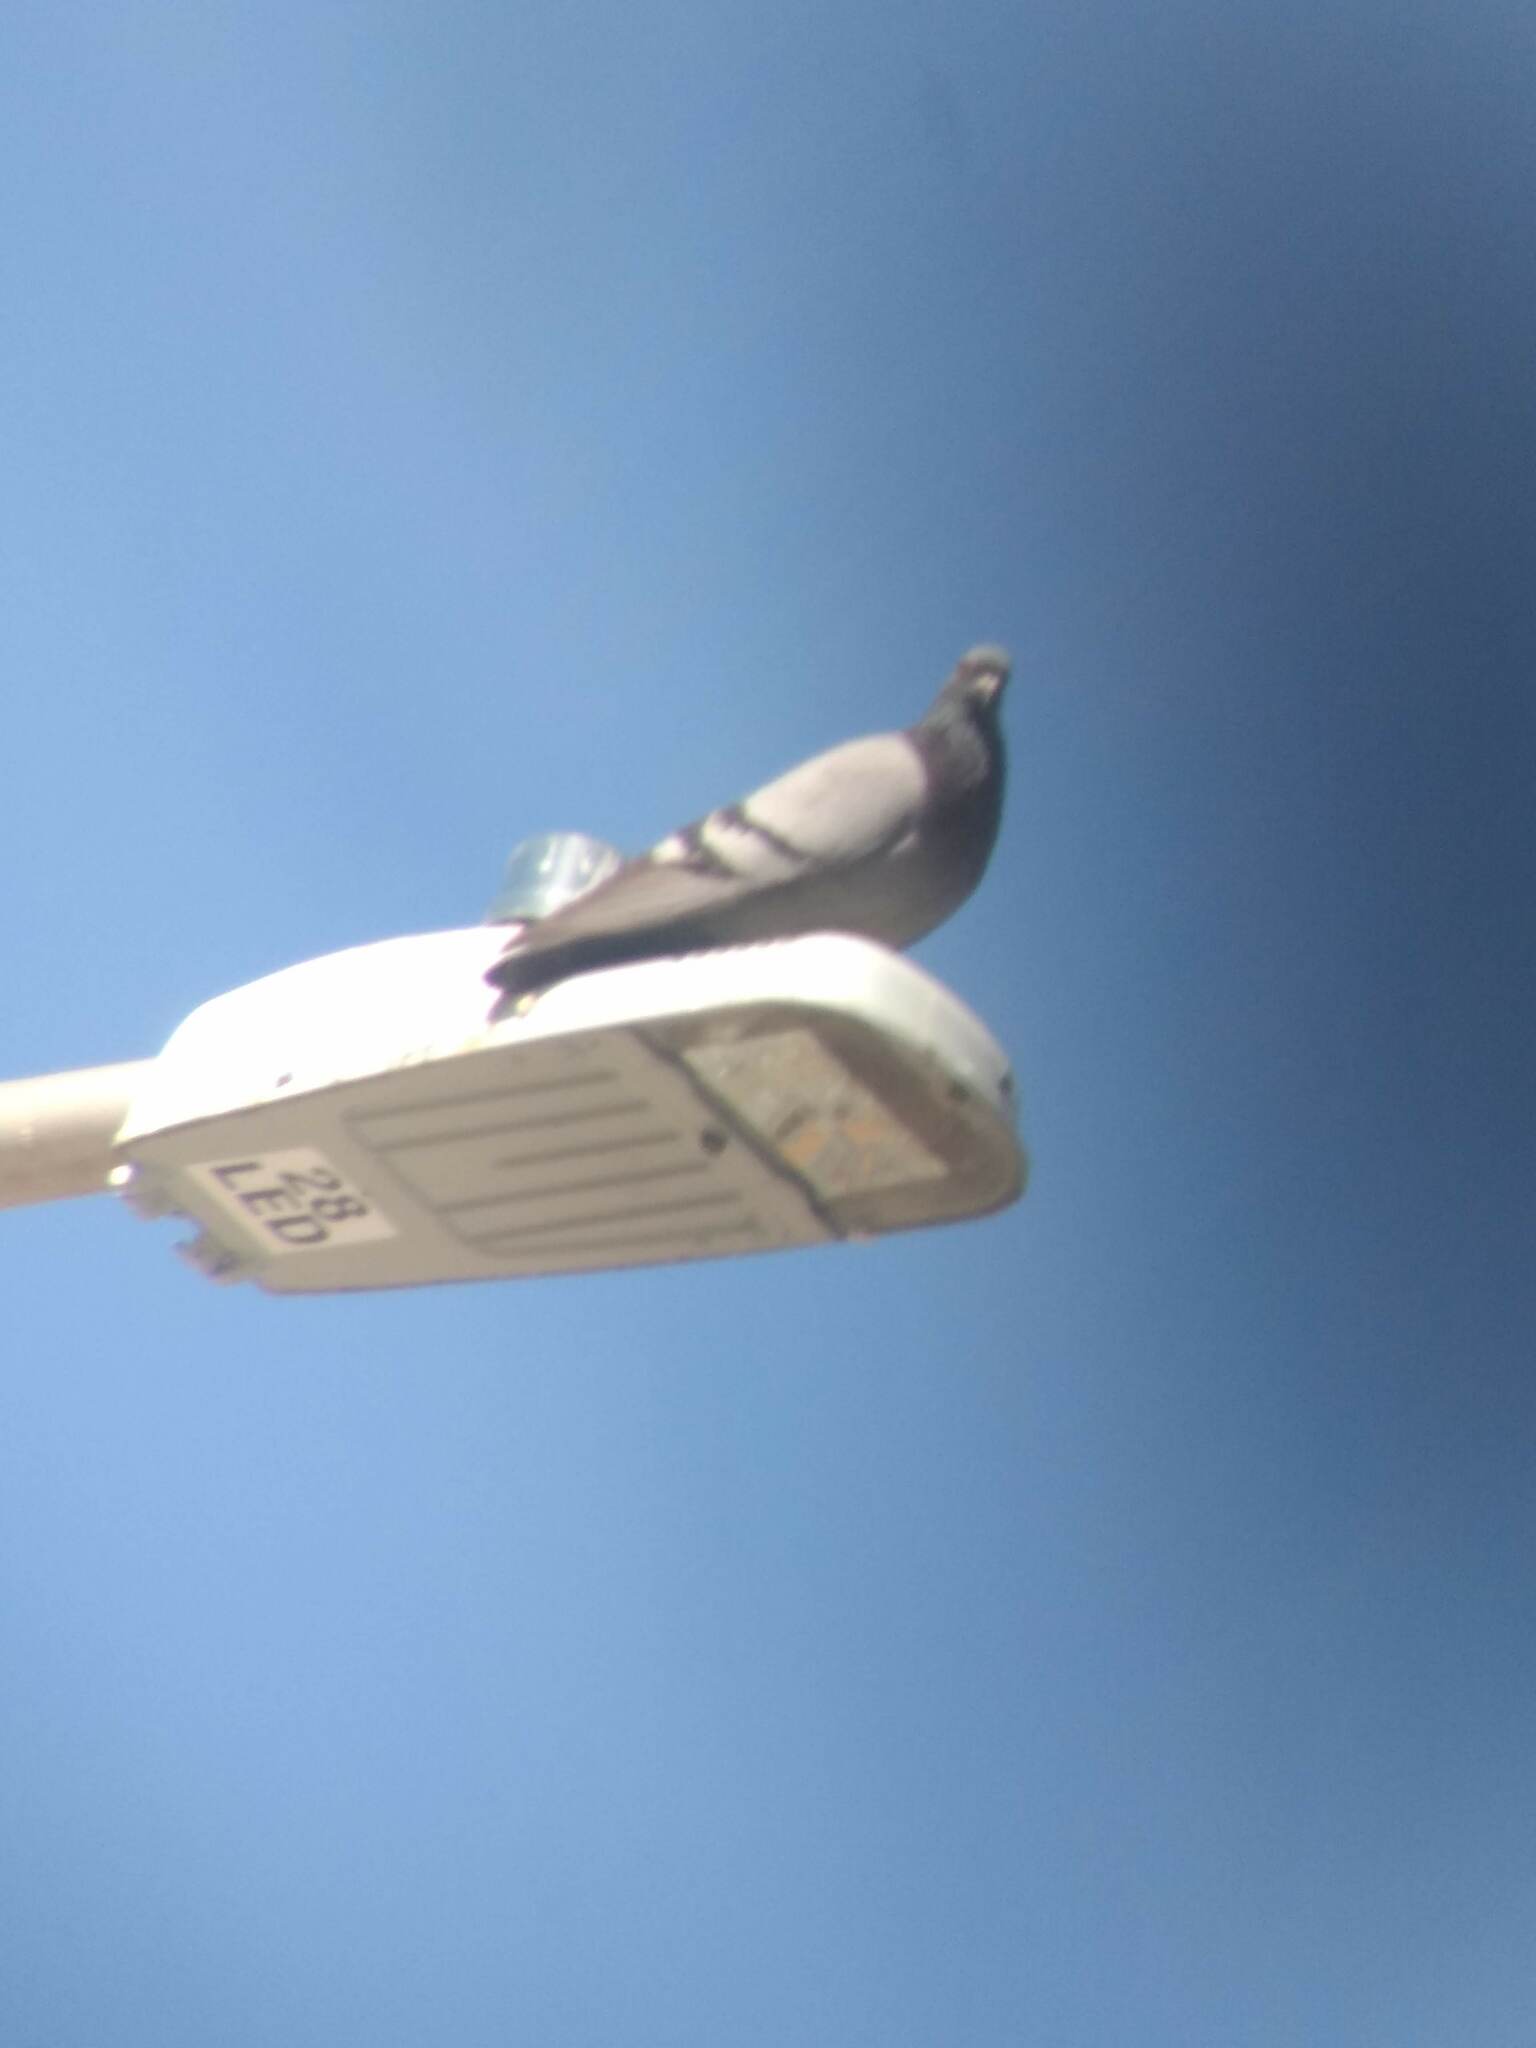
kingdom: Animalia
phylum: Chordata
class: Aves
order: Columbiformes
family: Columbidae
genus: Columba
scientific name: Columba livia
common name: Rock pigeon
